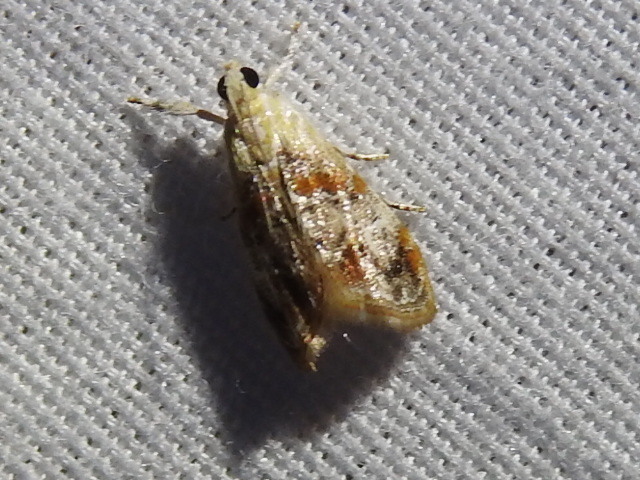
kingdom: Animalia
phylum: Arthropoda
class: Insecta
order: Lepidoptera
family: Crambidae
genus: Dicymolomia
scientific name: Dicymolomia julianalis
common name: Julia's dicymolomia moth
